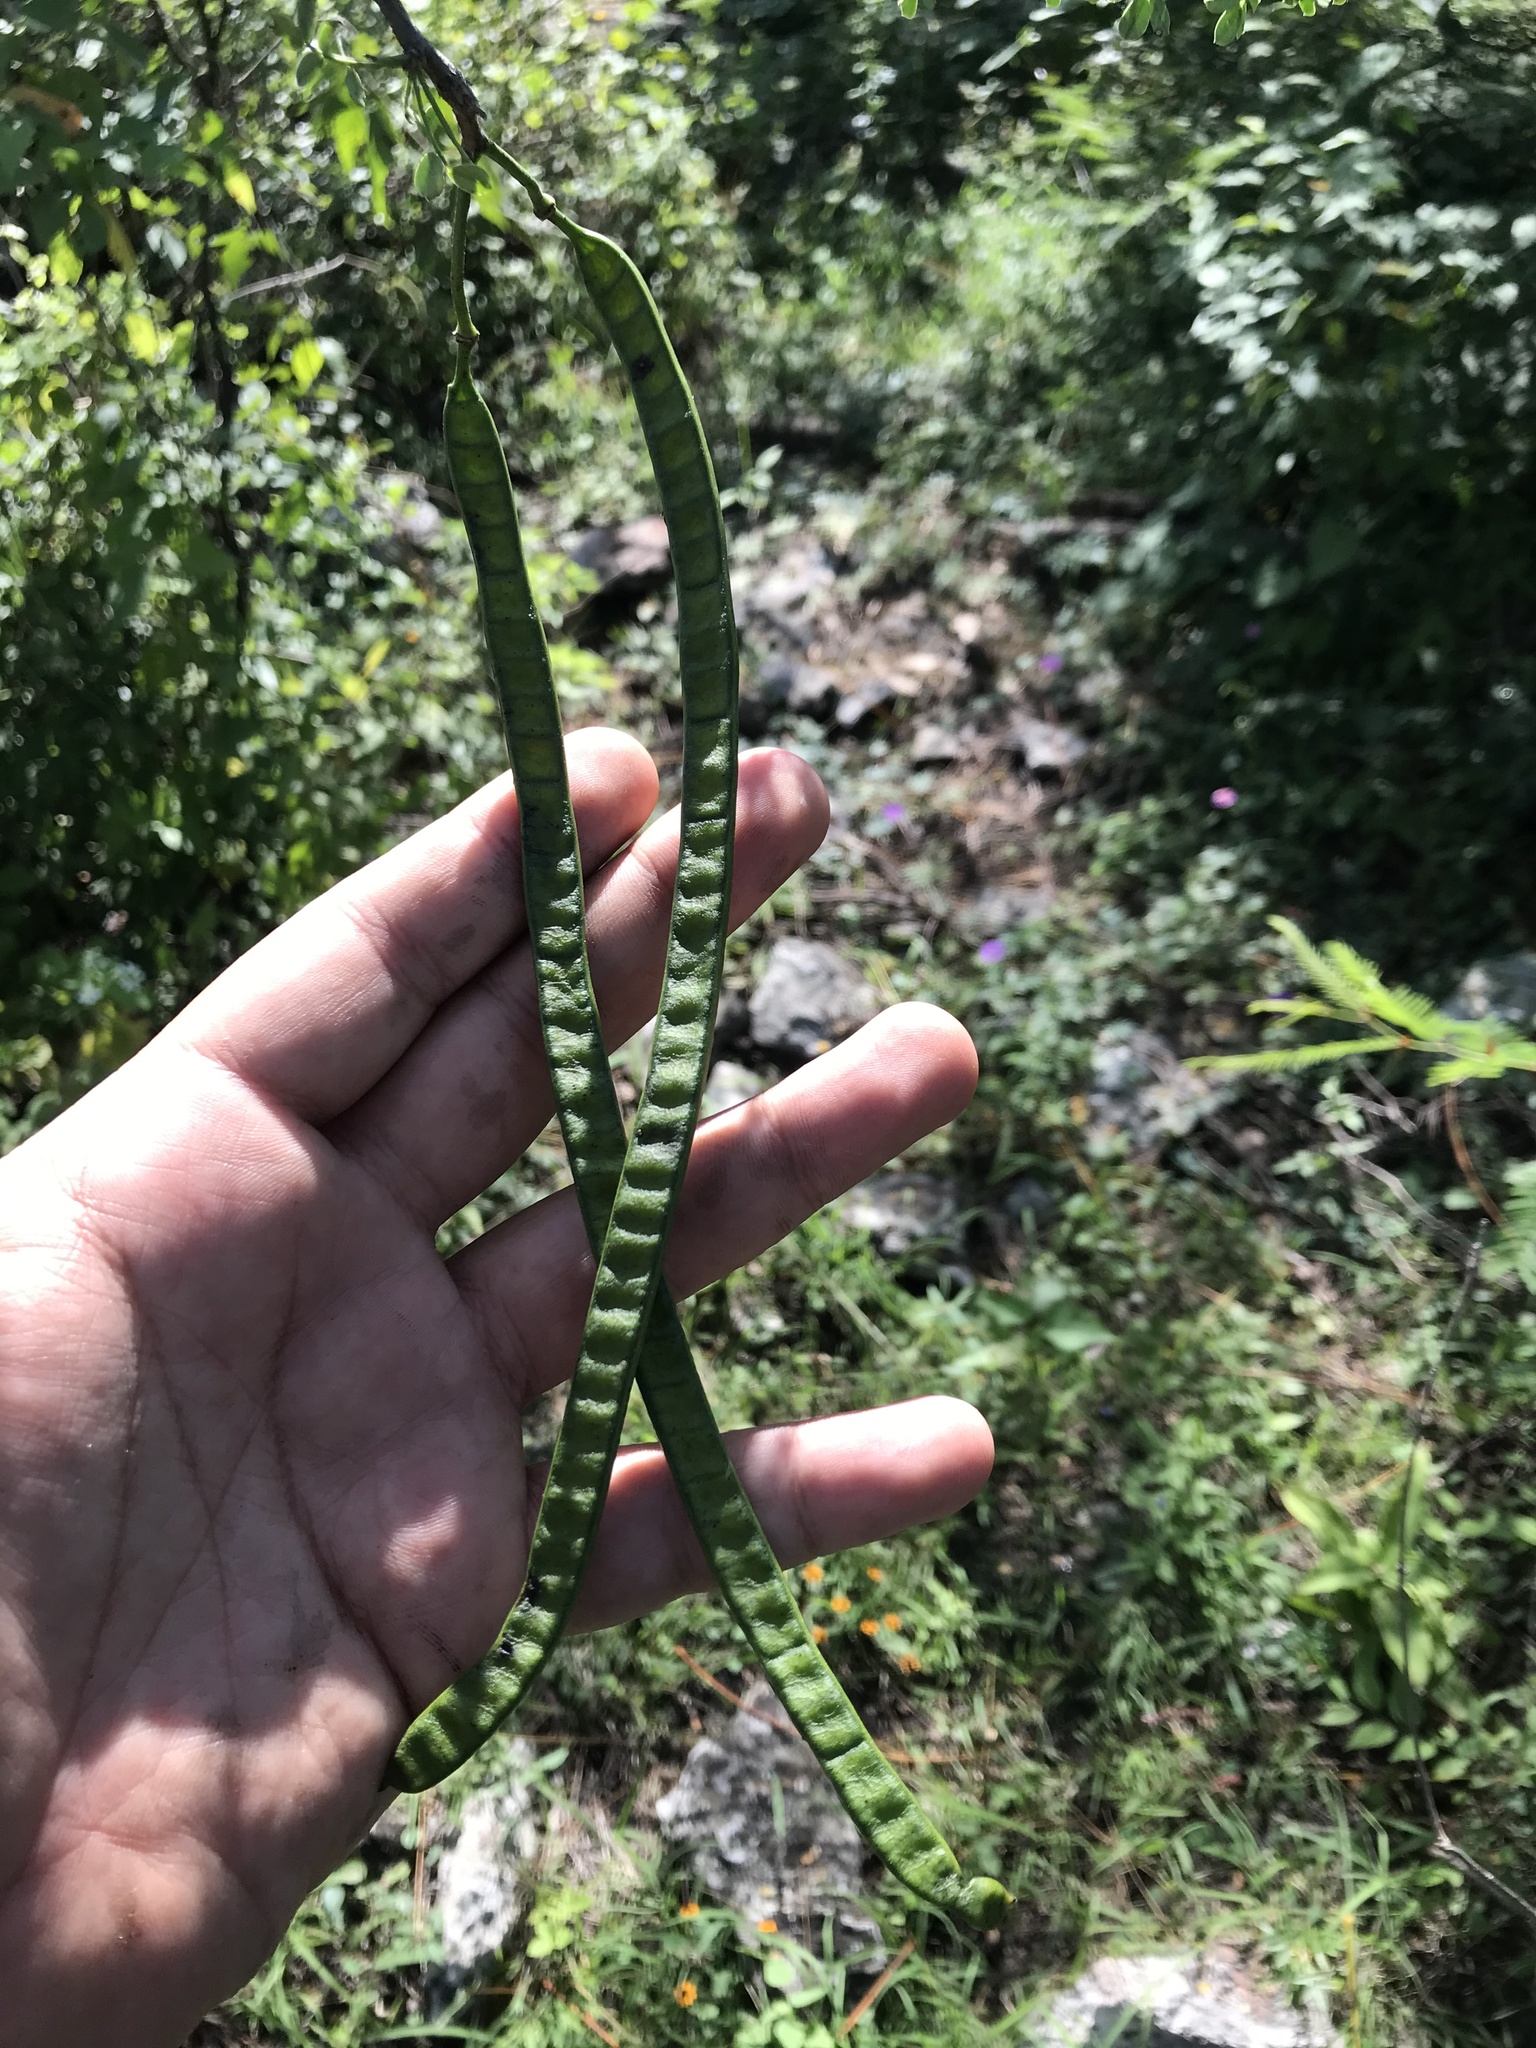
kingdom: Plantae
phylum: Tracheophyta
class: Magnoliopsida
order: Fabales
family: Fabaceae
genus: Senna
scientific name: Senna wislizeni
